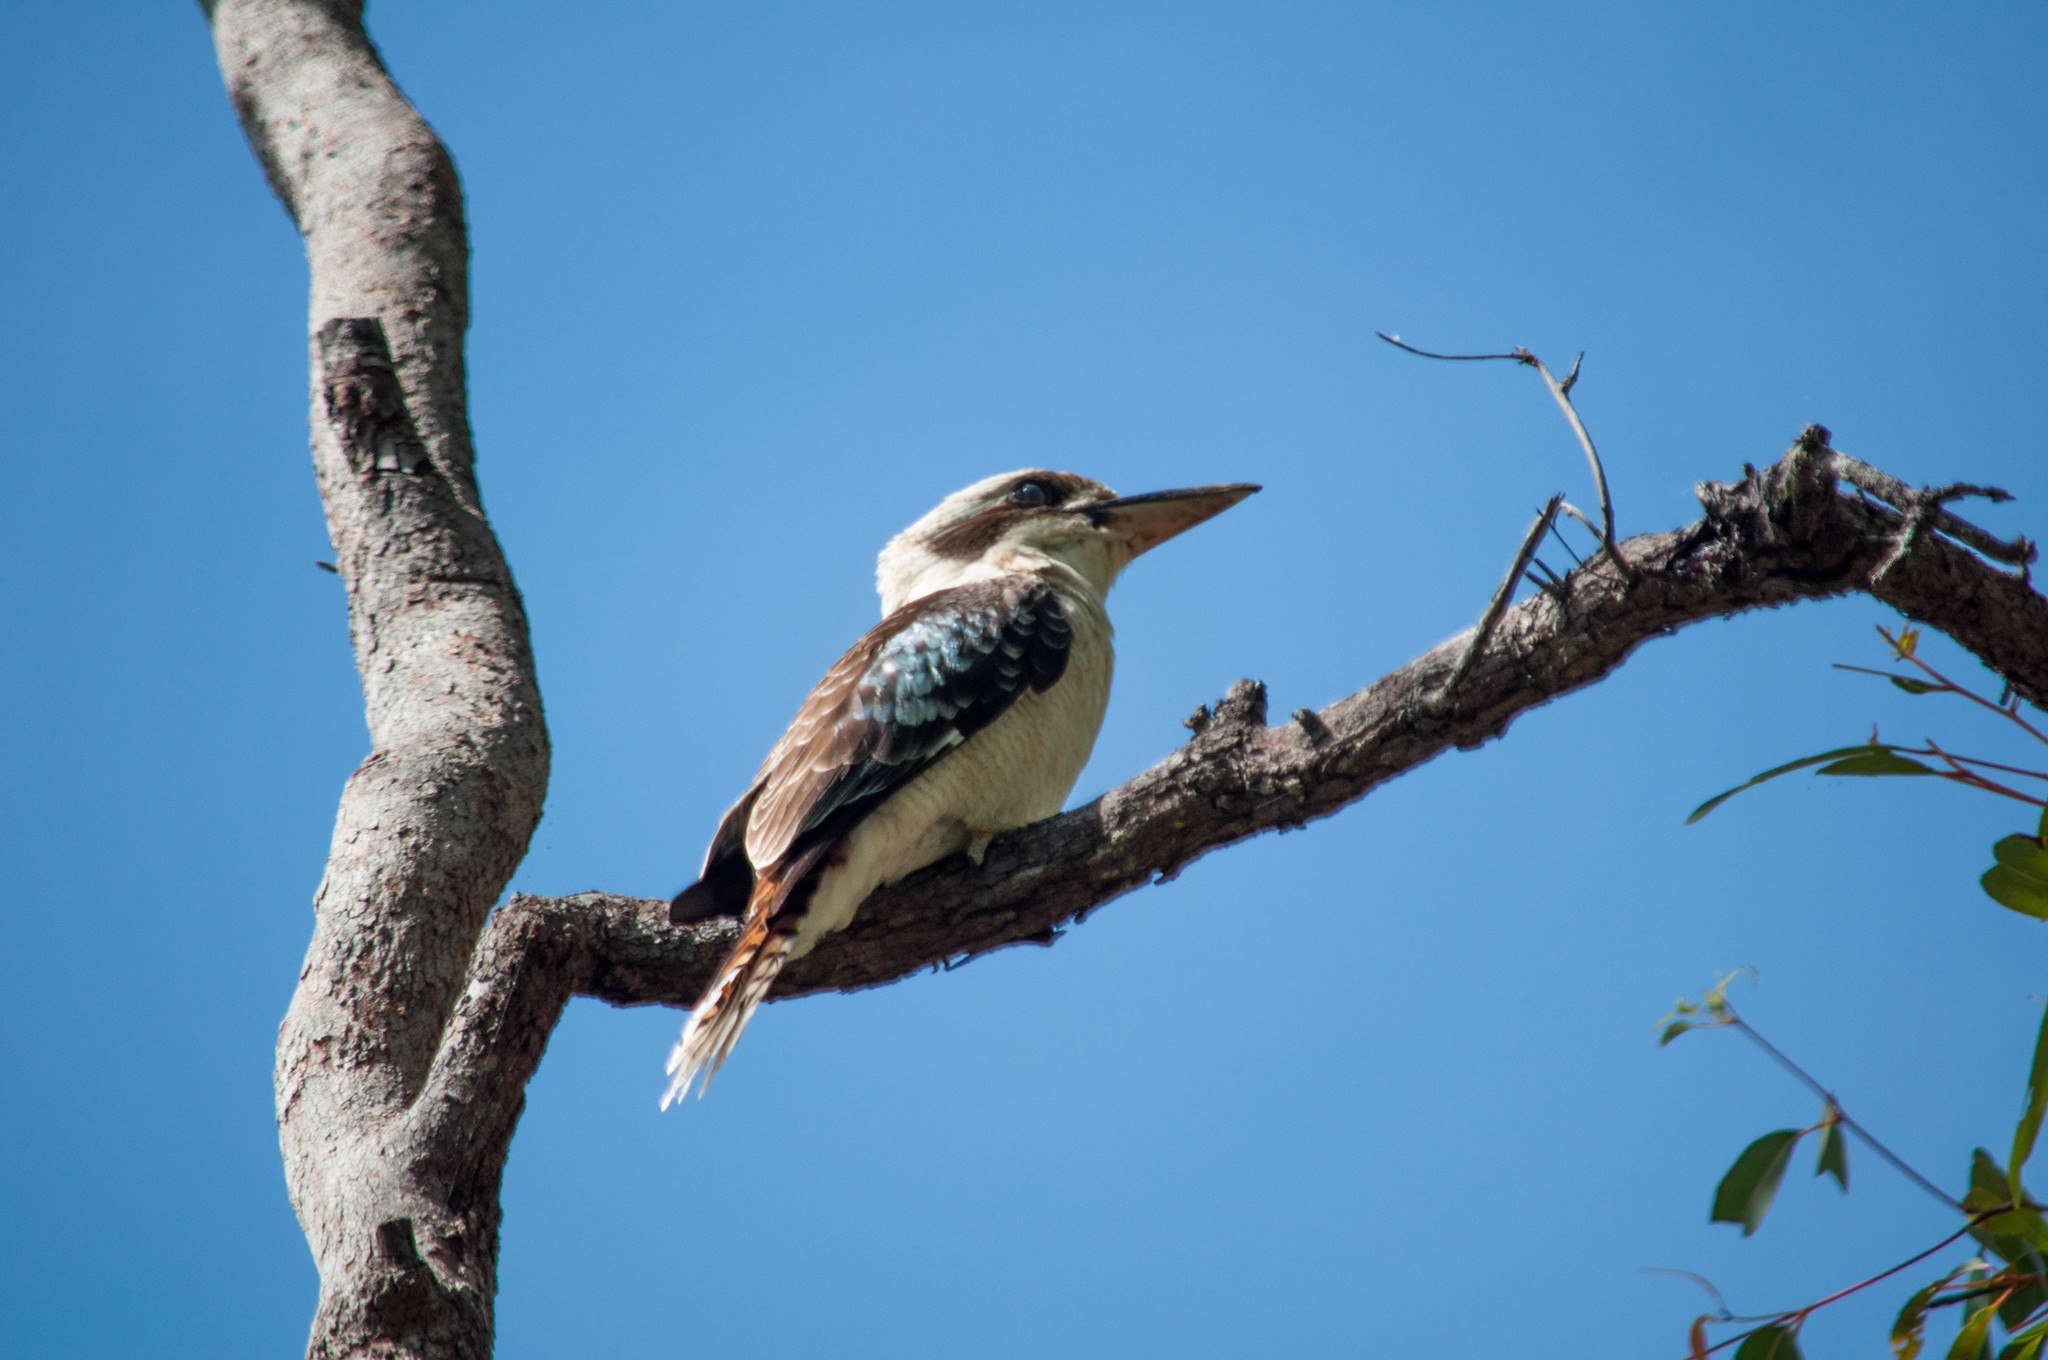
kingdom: Animalia
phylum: Chordata
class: Aves
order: Coraciiformes
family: Alcedinidae
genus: Dacelo
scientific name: Dacelo novaeguineae
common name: Laughing kookaburra
